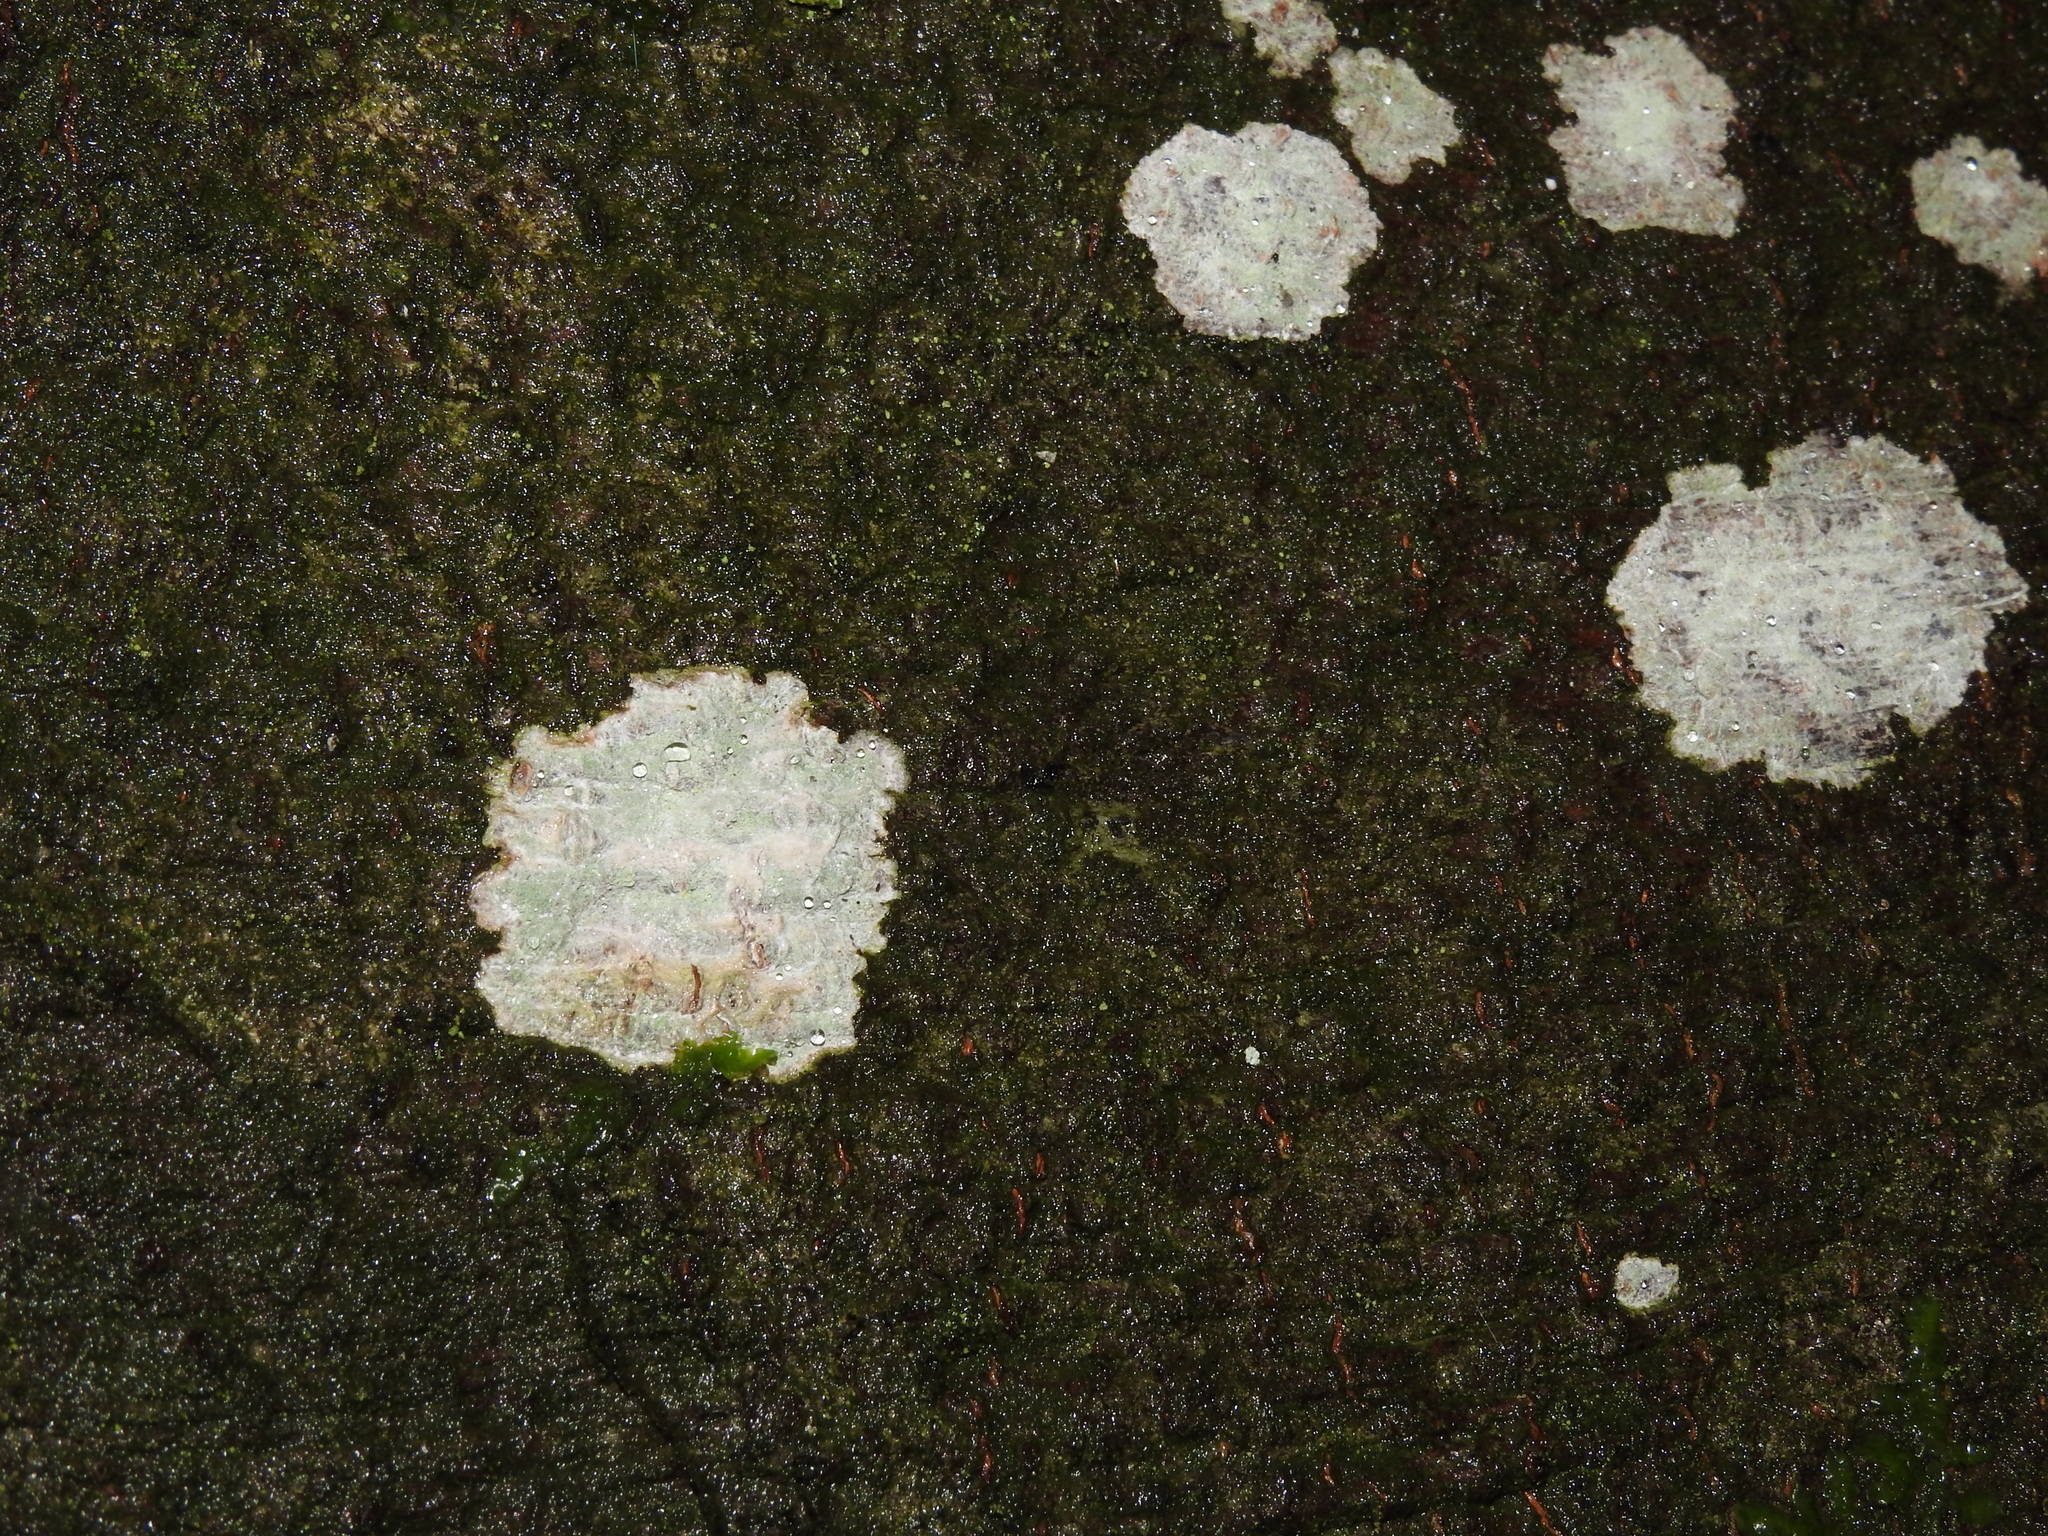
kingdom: Fungi
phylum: Ascomycota
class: Lecanoromycetes
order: Ostropales
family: Phlyctidaceae
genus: Phlyctis
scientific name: Phlyctis argena
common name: Whitewash lichen
